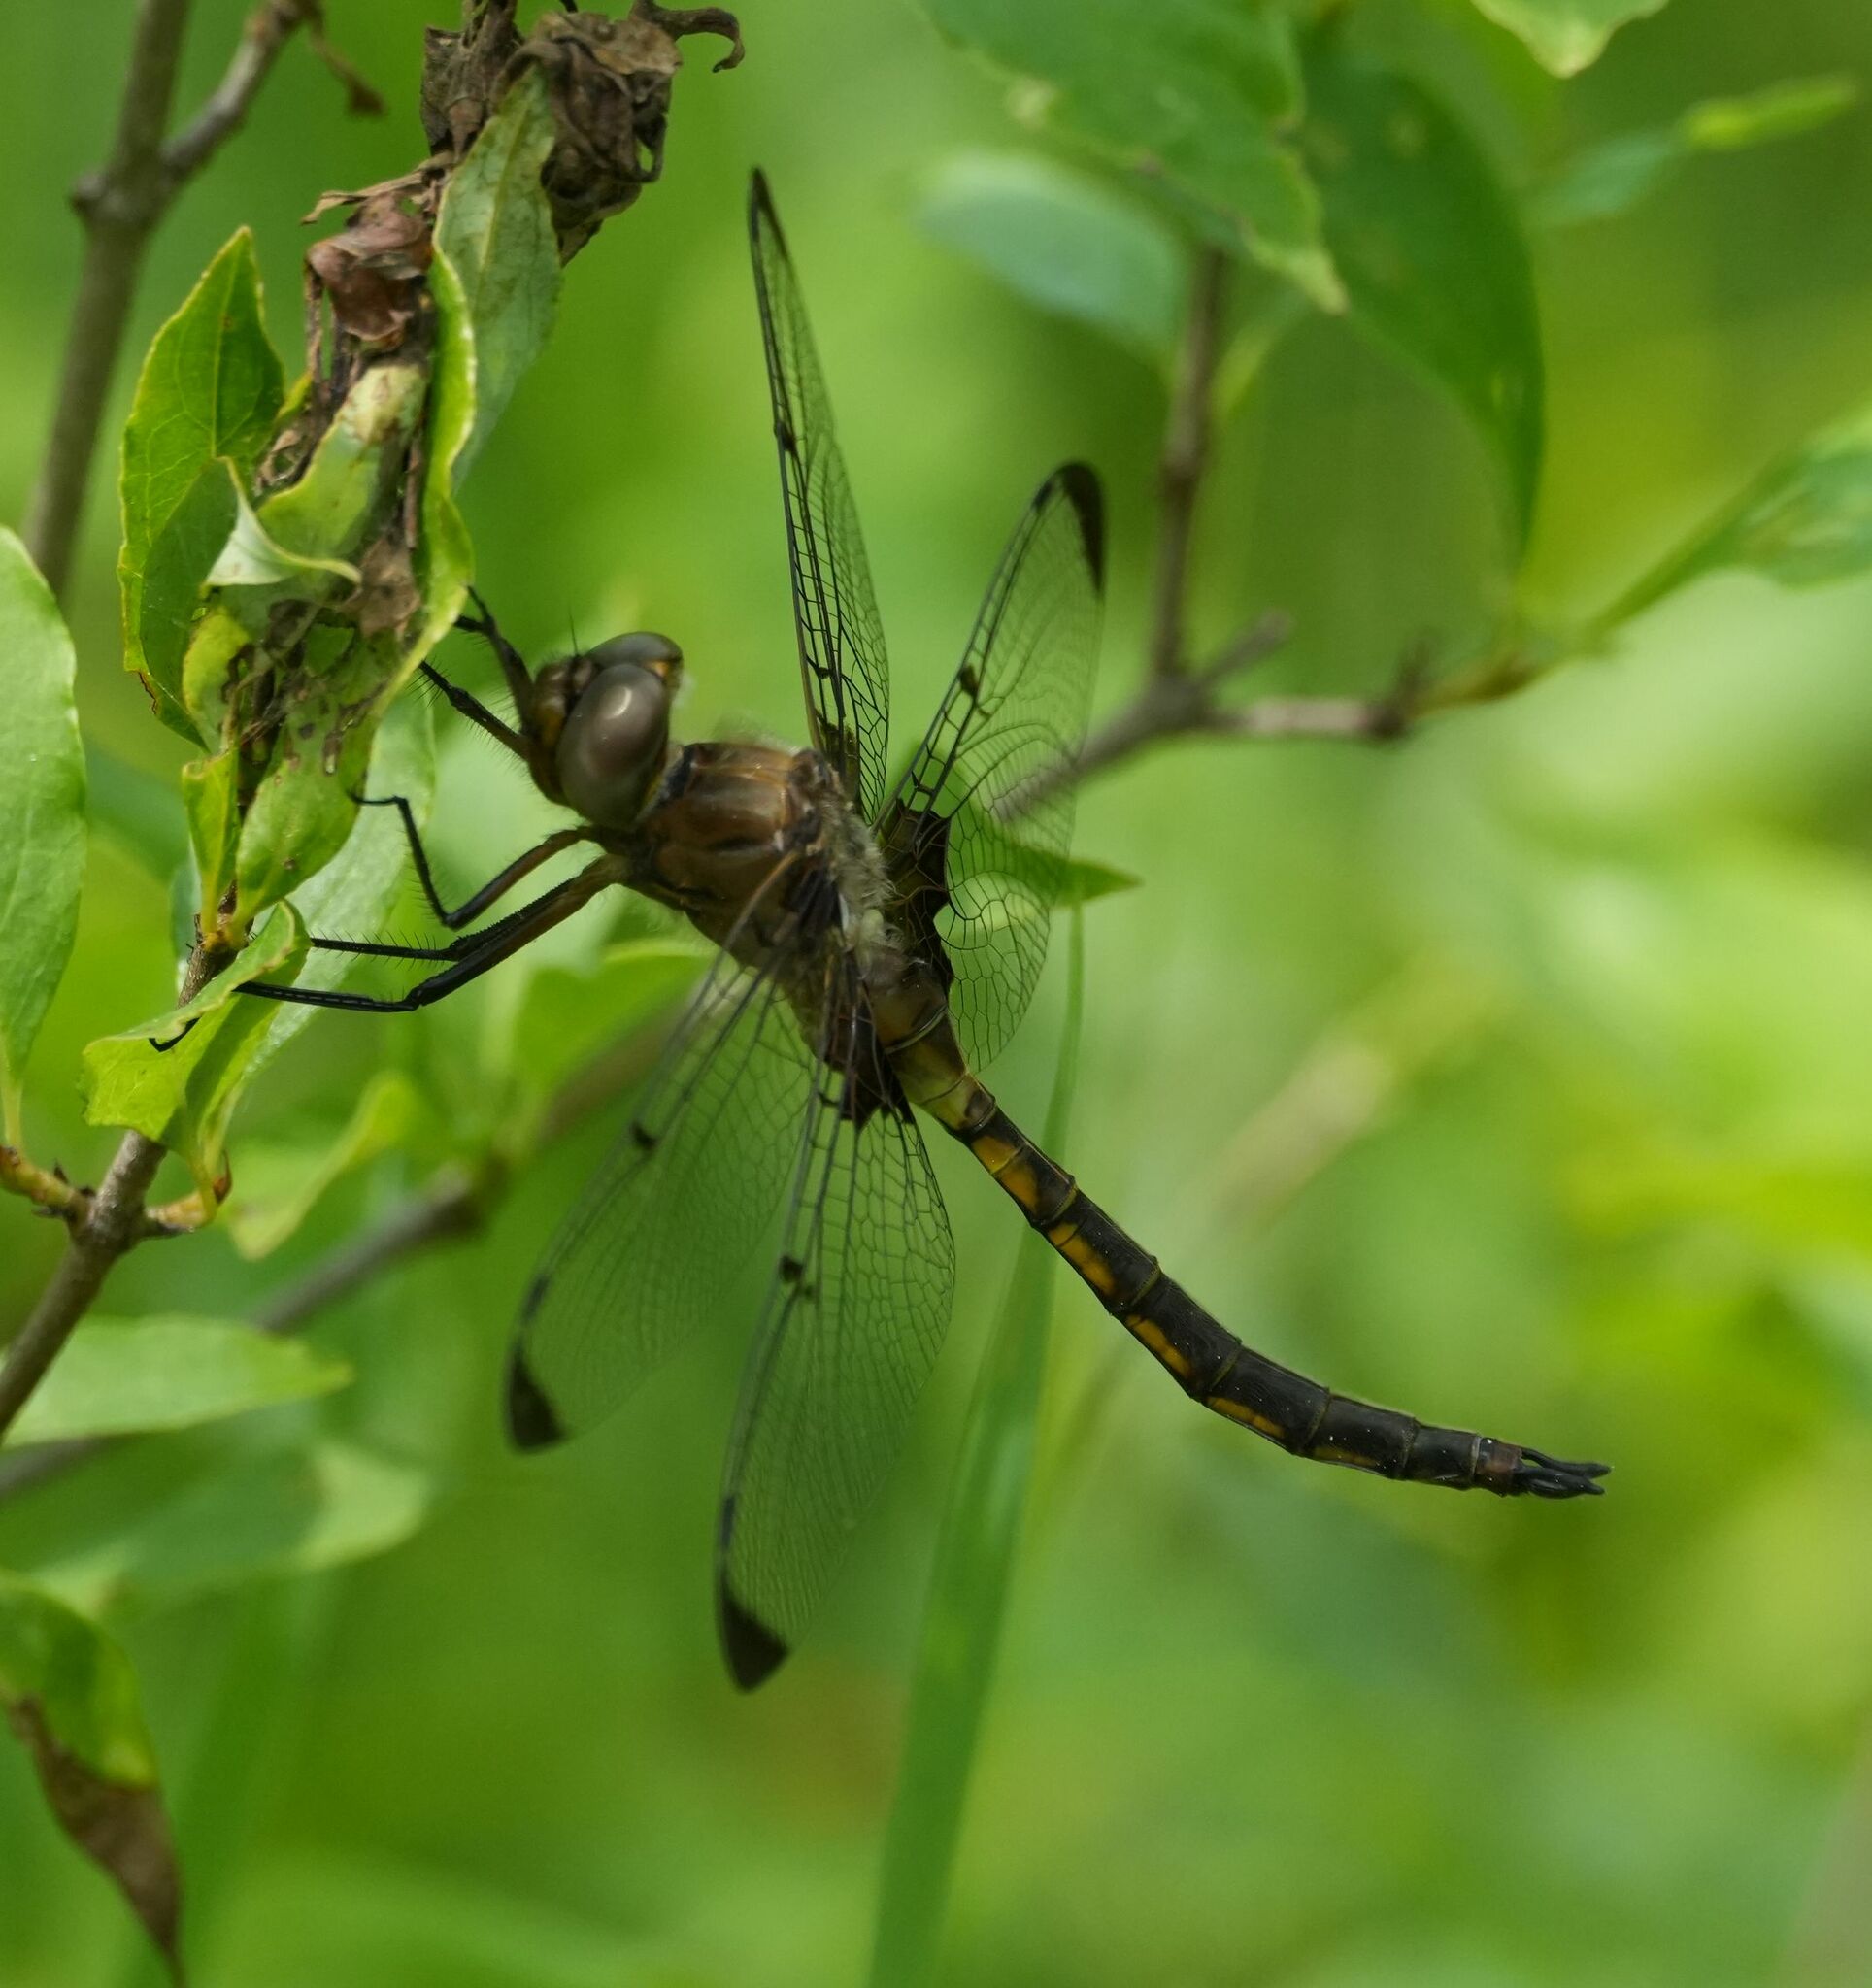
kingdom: Animalia
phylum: Arthropoda
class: Insecta
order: Odonata
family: Corduliidae
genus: Epitheca
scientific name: Epitheca princeps
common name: Prince baskettail
